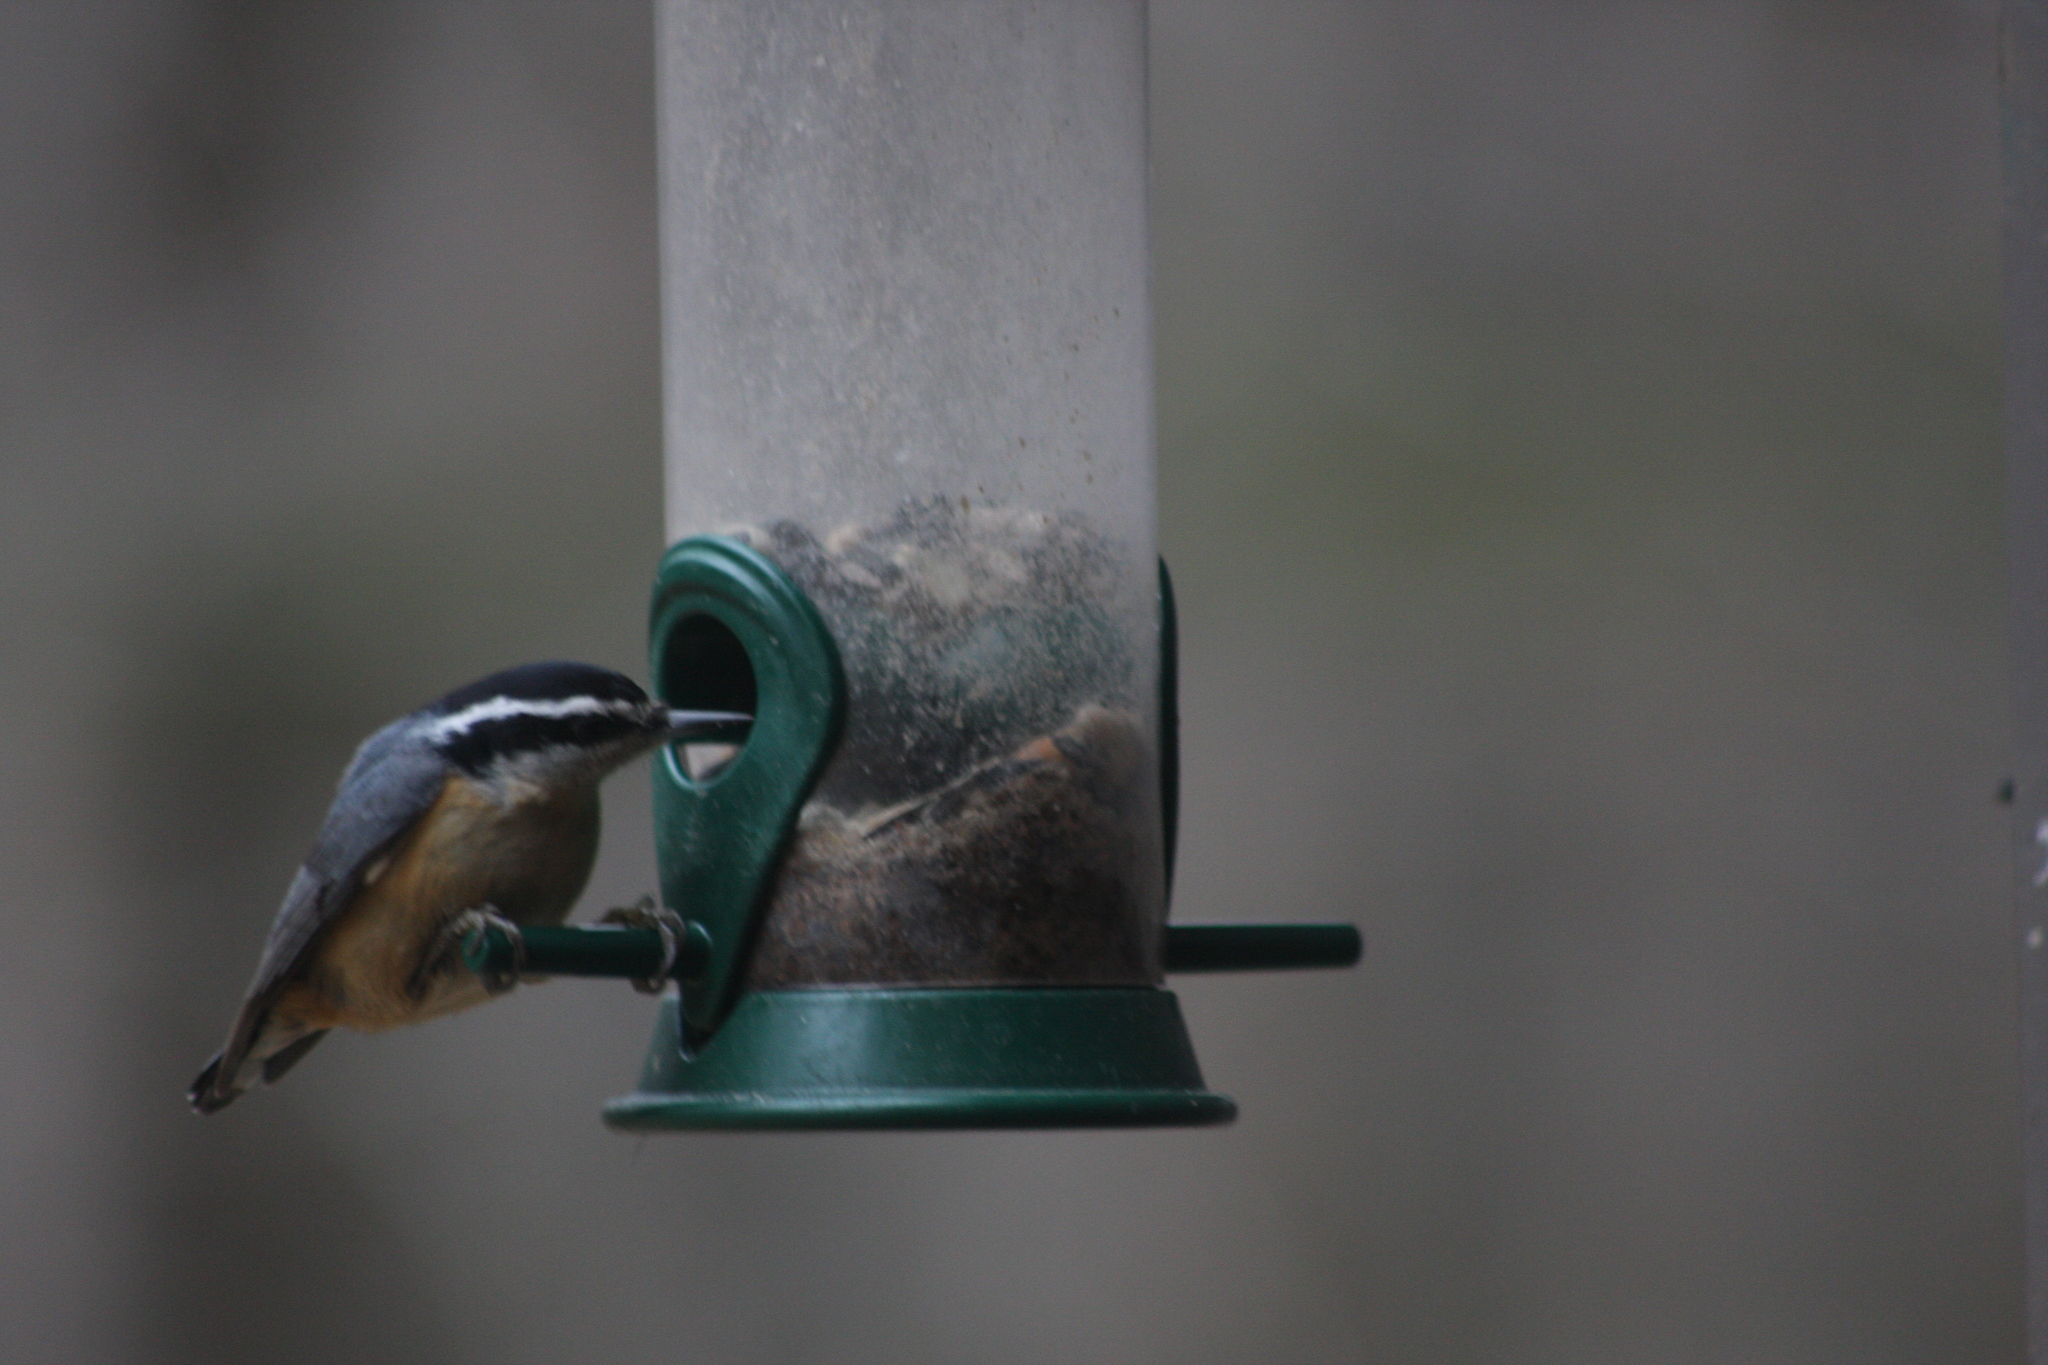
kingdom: Animalia
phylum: Chordata
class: Aves
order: Passeriformes
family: Sittidae
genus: Sitta
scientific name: Sitta canadensis
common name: Red-breasted nuthatch
